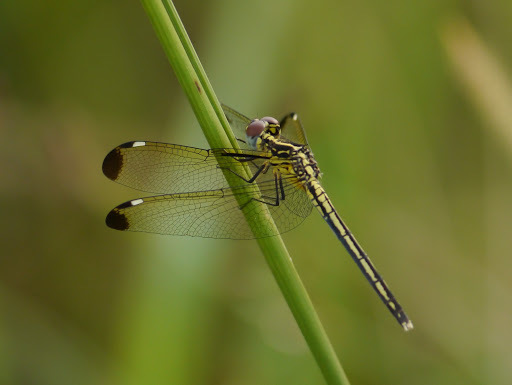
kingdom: Animalia
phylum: Arthropoda
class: Insecta
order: Odonata
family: Libellulidae
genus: Hemistigma
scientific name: Hemistigma albipunctum
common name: African pied-spot
